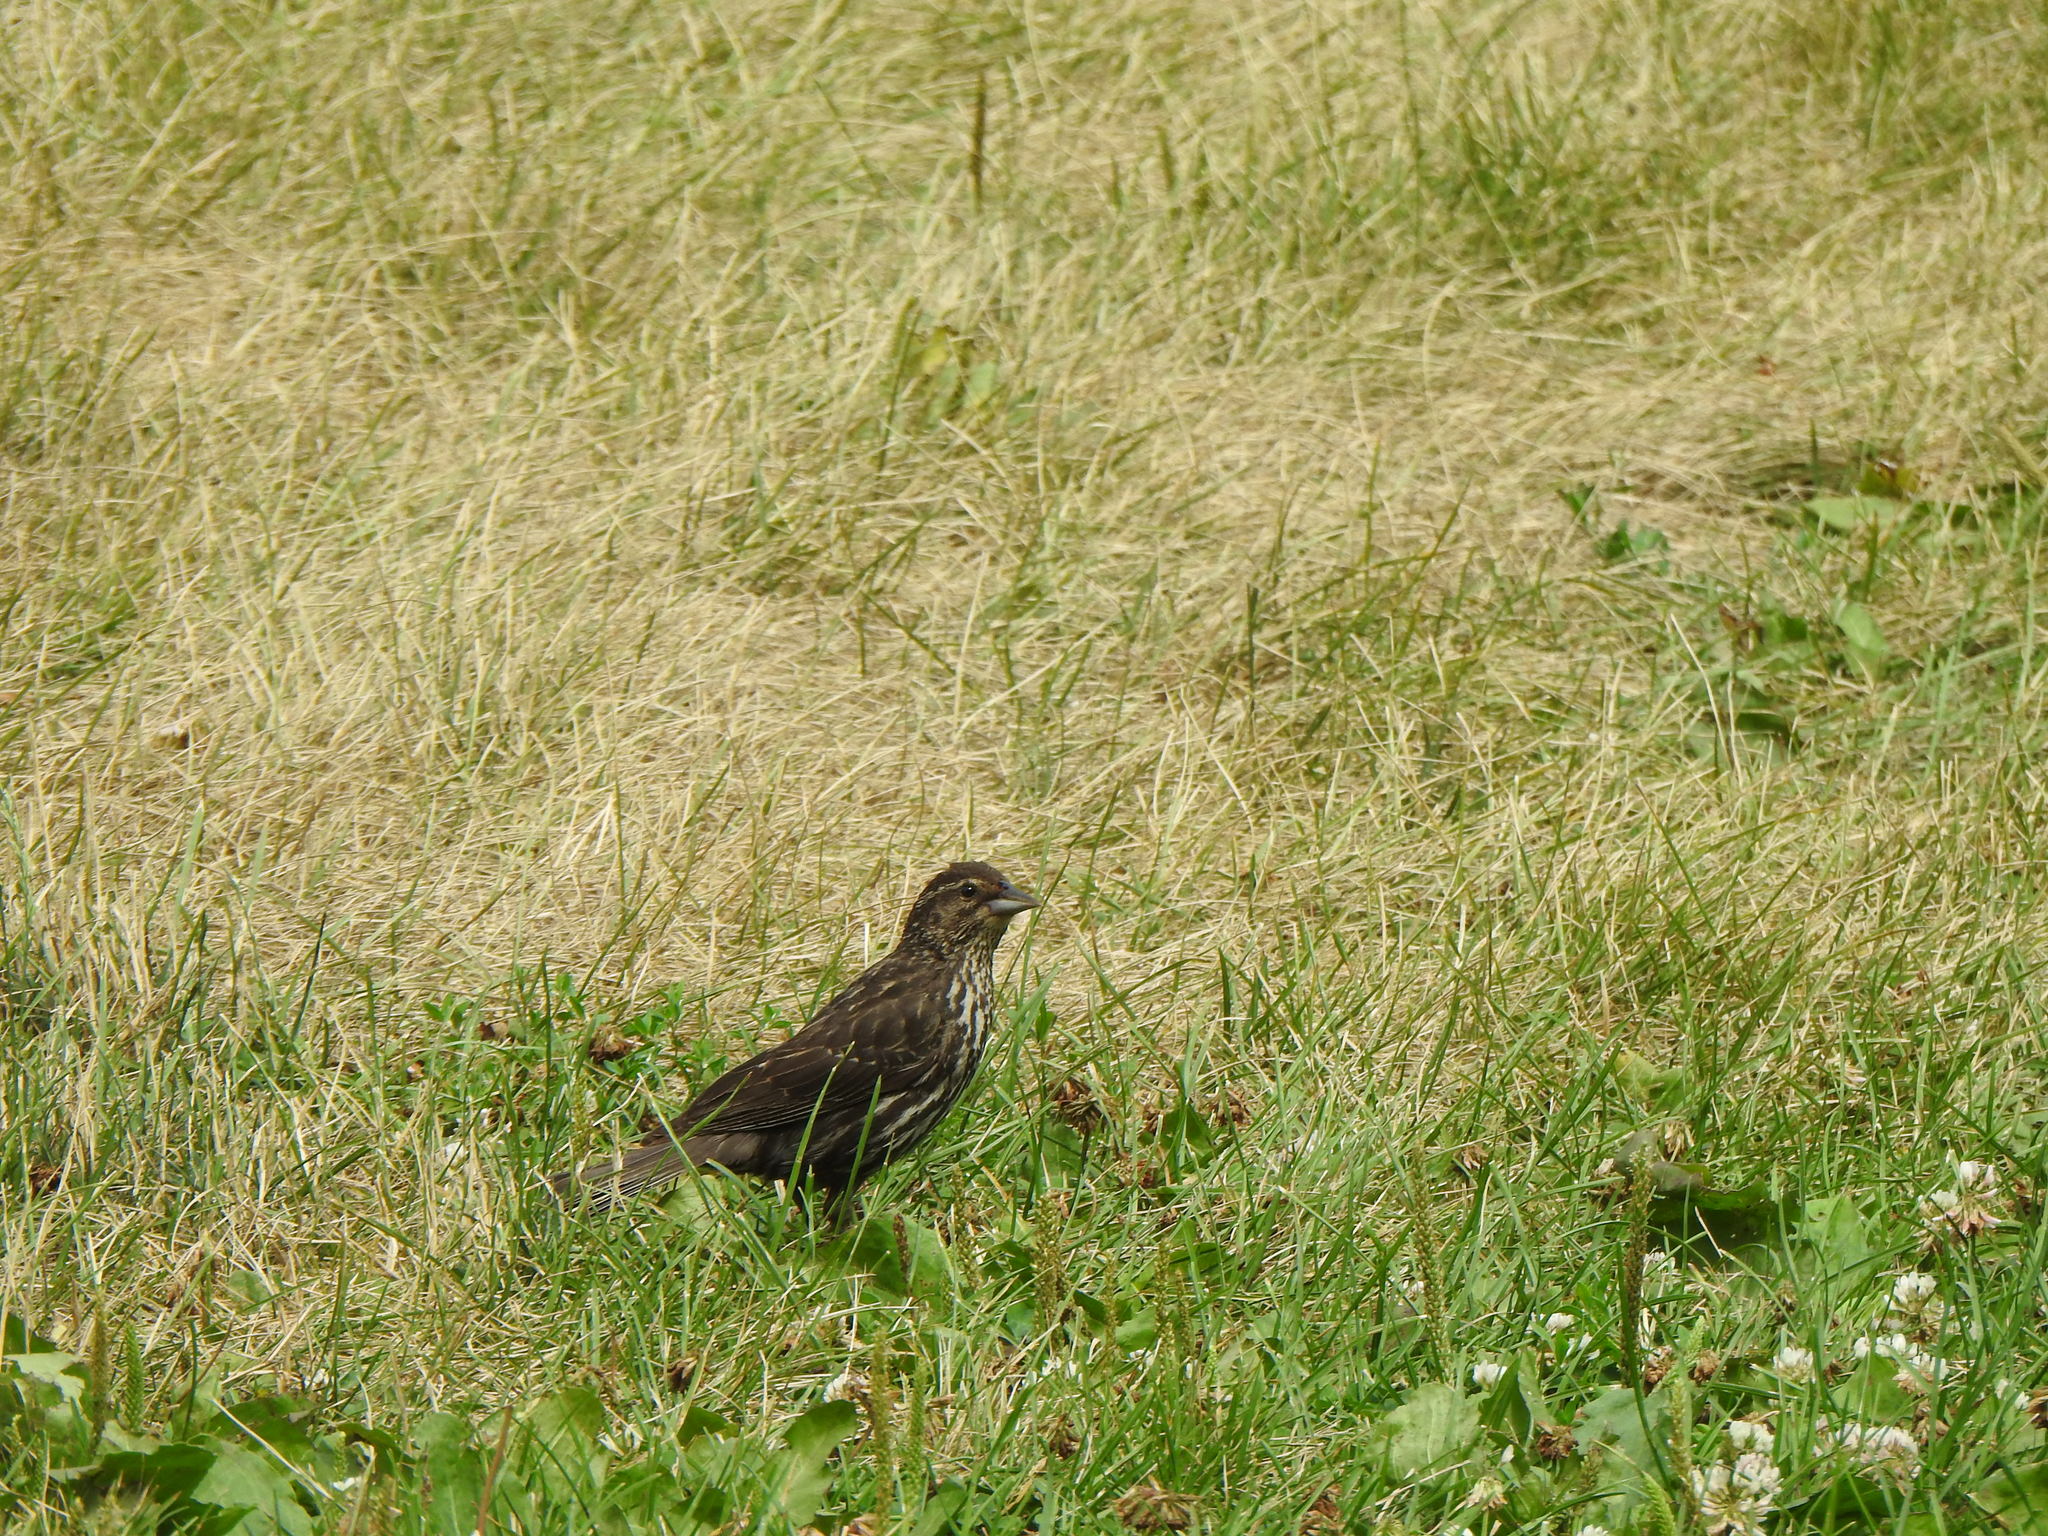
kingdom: Animalia
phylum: Chordata
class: Aves
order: Passeriformes
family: Icteridae
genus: Agelaius
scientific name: Agelaius phoeniceus
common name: Red-winged blackbird
